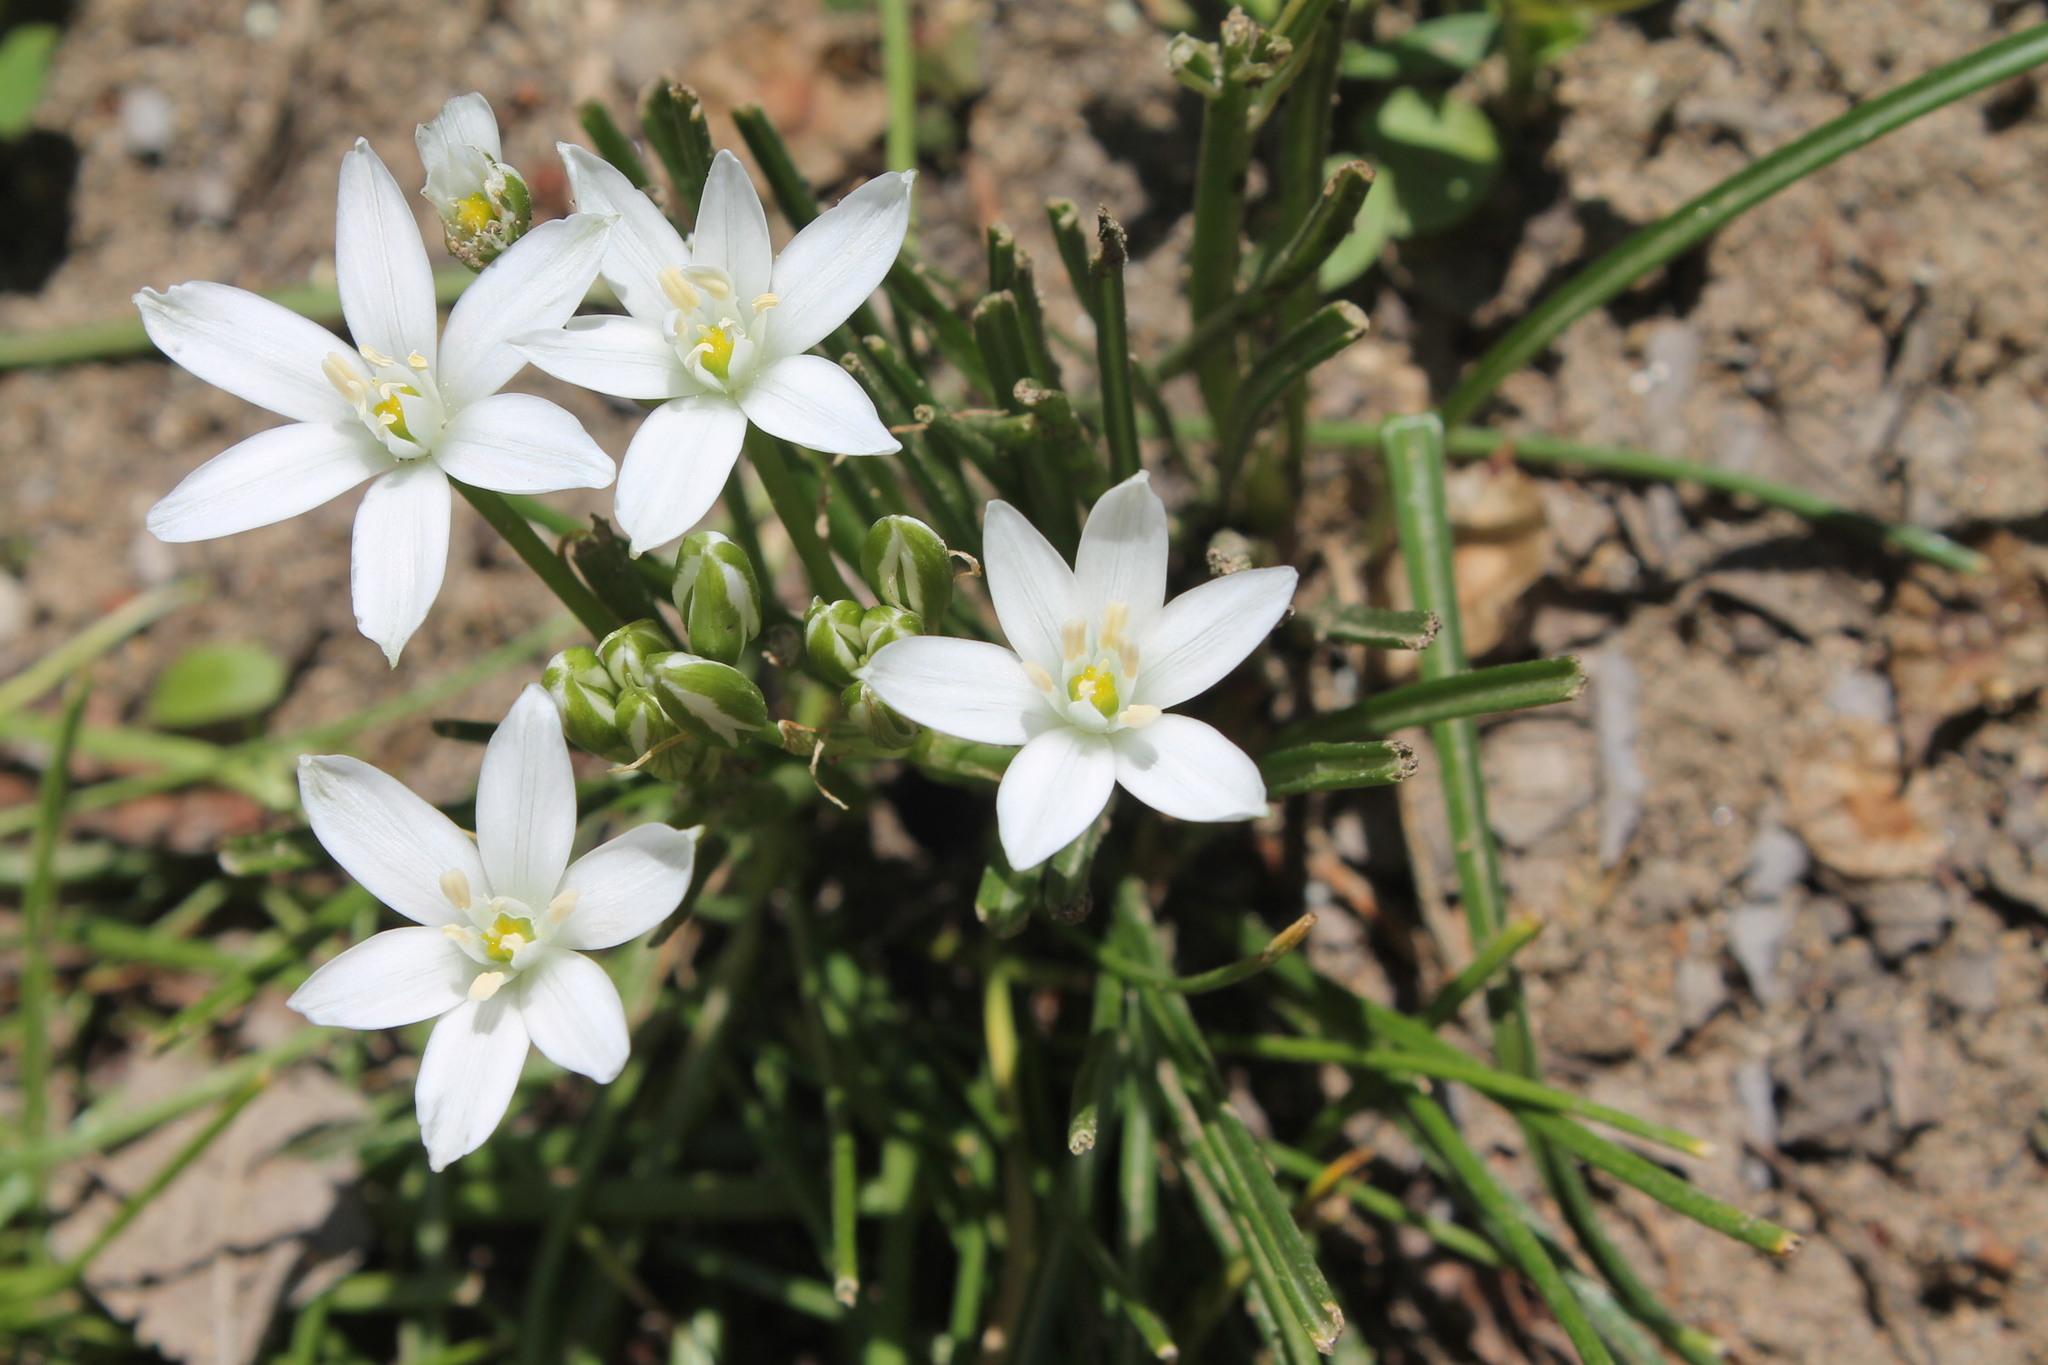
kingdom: Plantae
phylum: Tracheophyta
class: Liliopsida
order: Asparagales
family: Asparagaceae
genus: Ornithogalum
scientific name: Ornithogalum umbellatum
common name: Garden star-of-bethlehem
